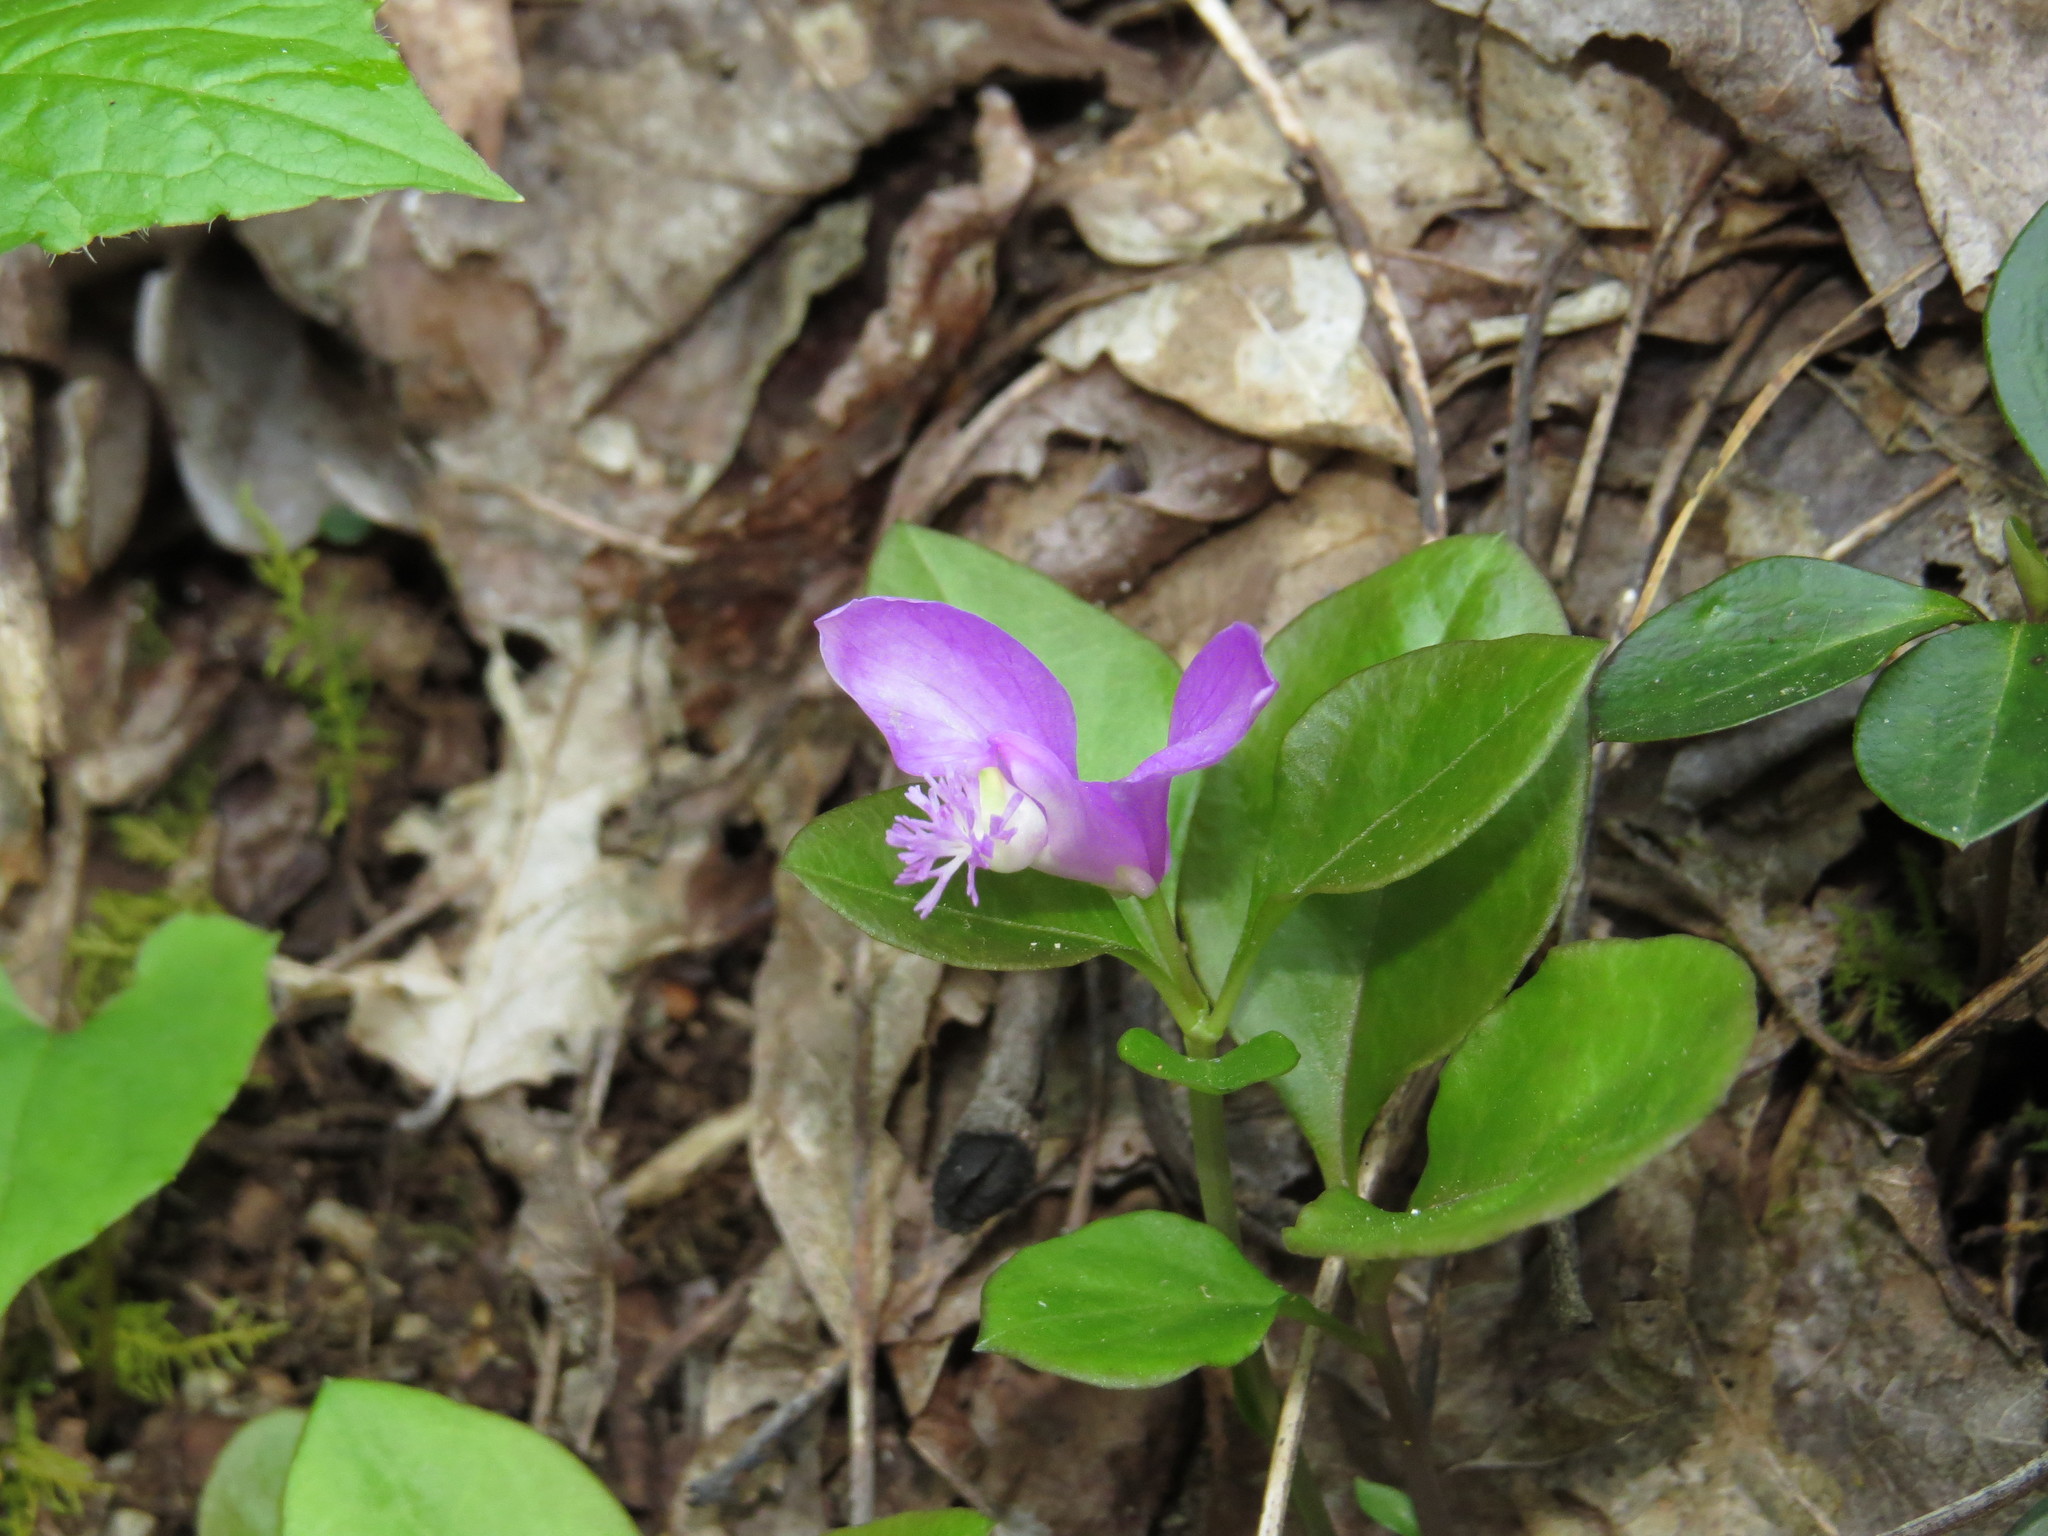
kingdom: Plantae
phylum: Tracheophyta
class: Magnoliopsida
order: Fabales
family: Polygalaceae
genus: Polygaloides
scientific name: Polygaloides paucifolia
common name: Bird-on-the-wing
